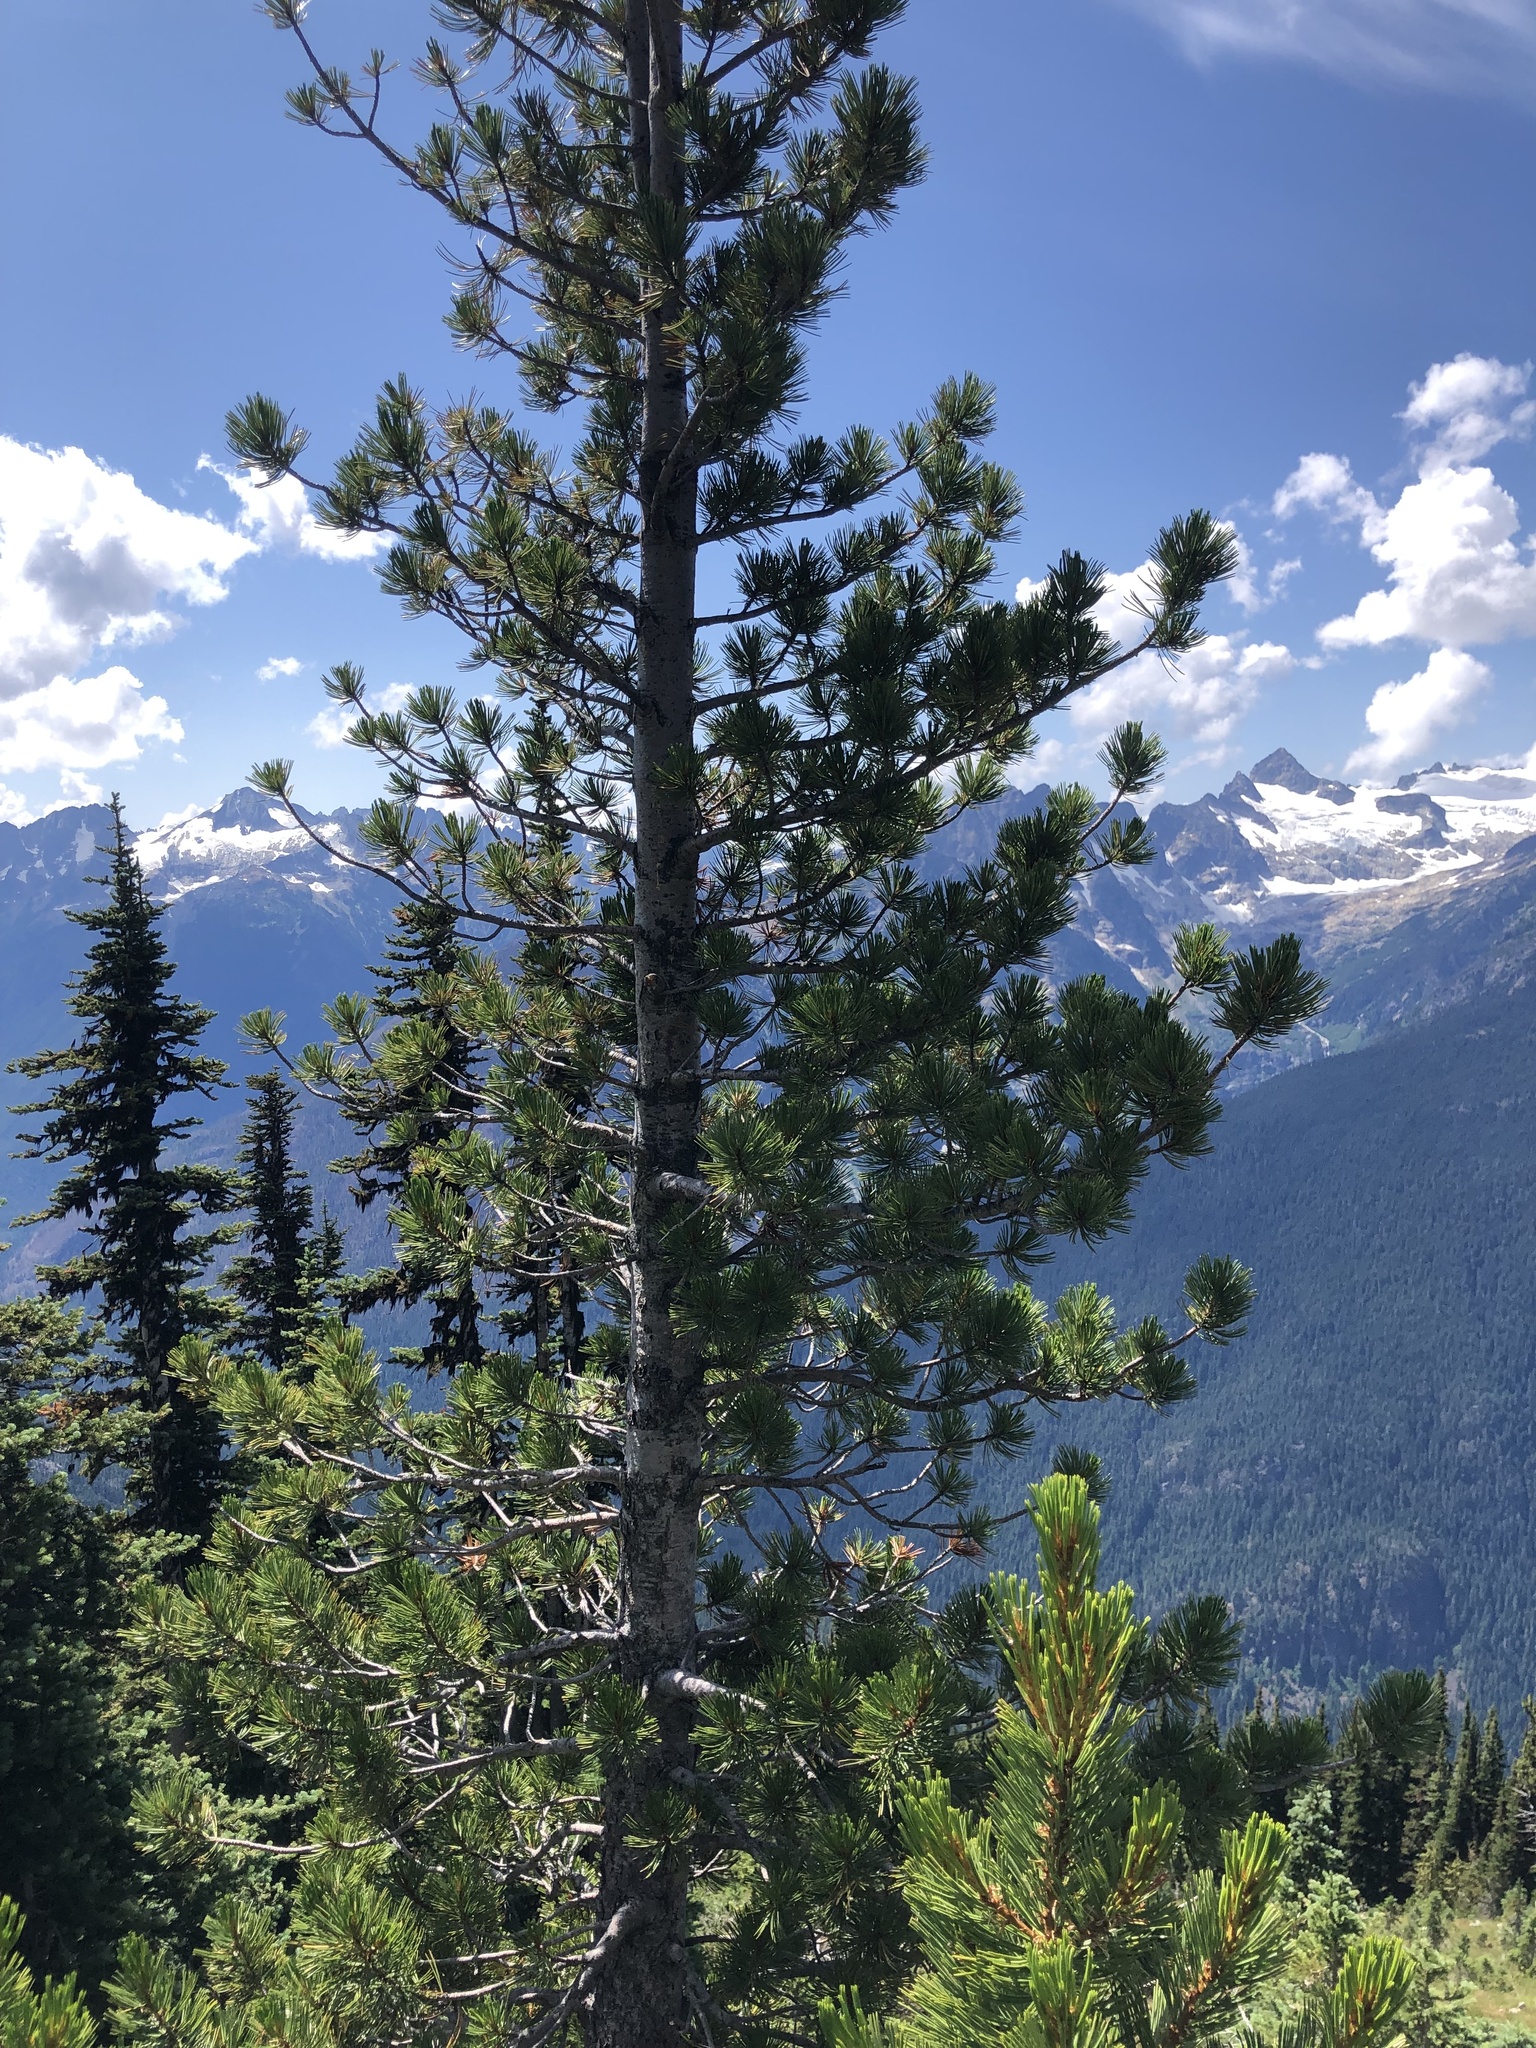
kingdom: Plantae
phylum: Tracheophyta
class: Pinopsida
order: Pinales
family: Pinaceae
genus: Pinus
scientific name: Pinus albicaulis
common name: Whitebark pine
